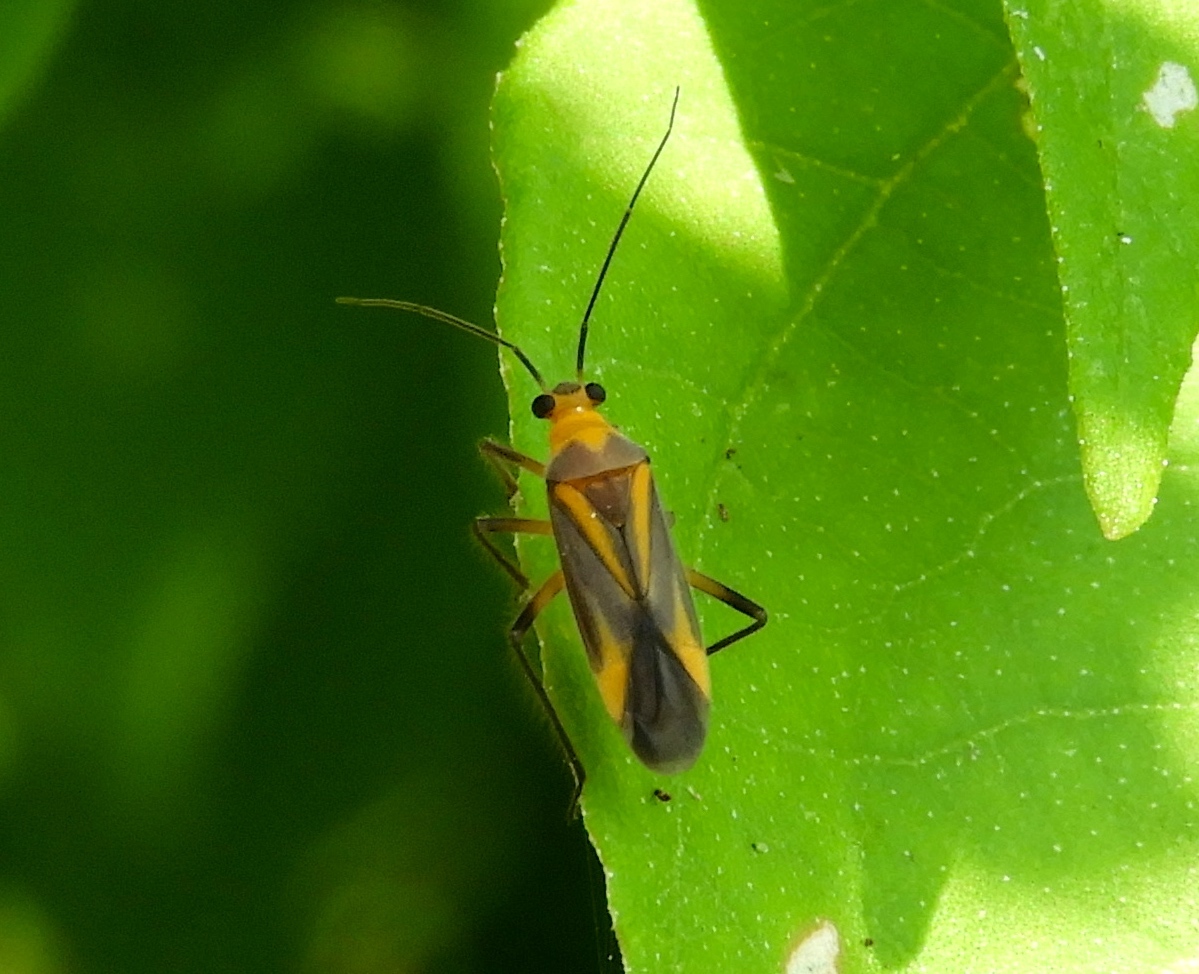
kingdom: Animalia
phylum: Arthropoda
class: Insecta
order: Hemiptera
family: Miridae
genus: Prepopsoides
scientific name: Prepopsoides occidentalis
